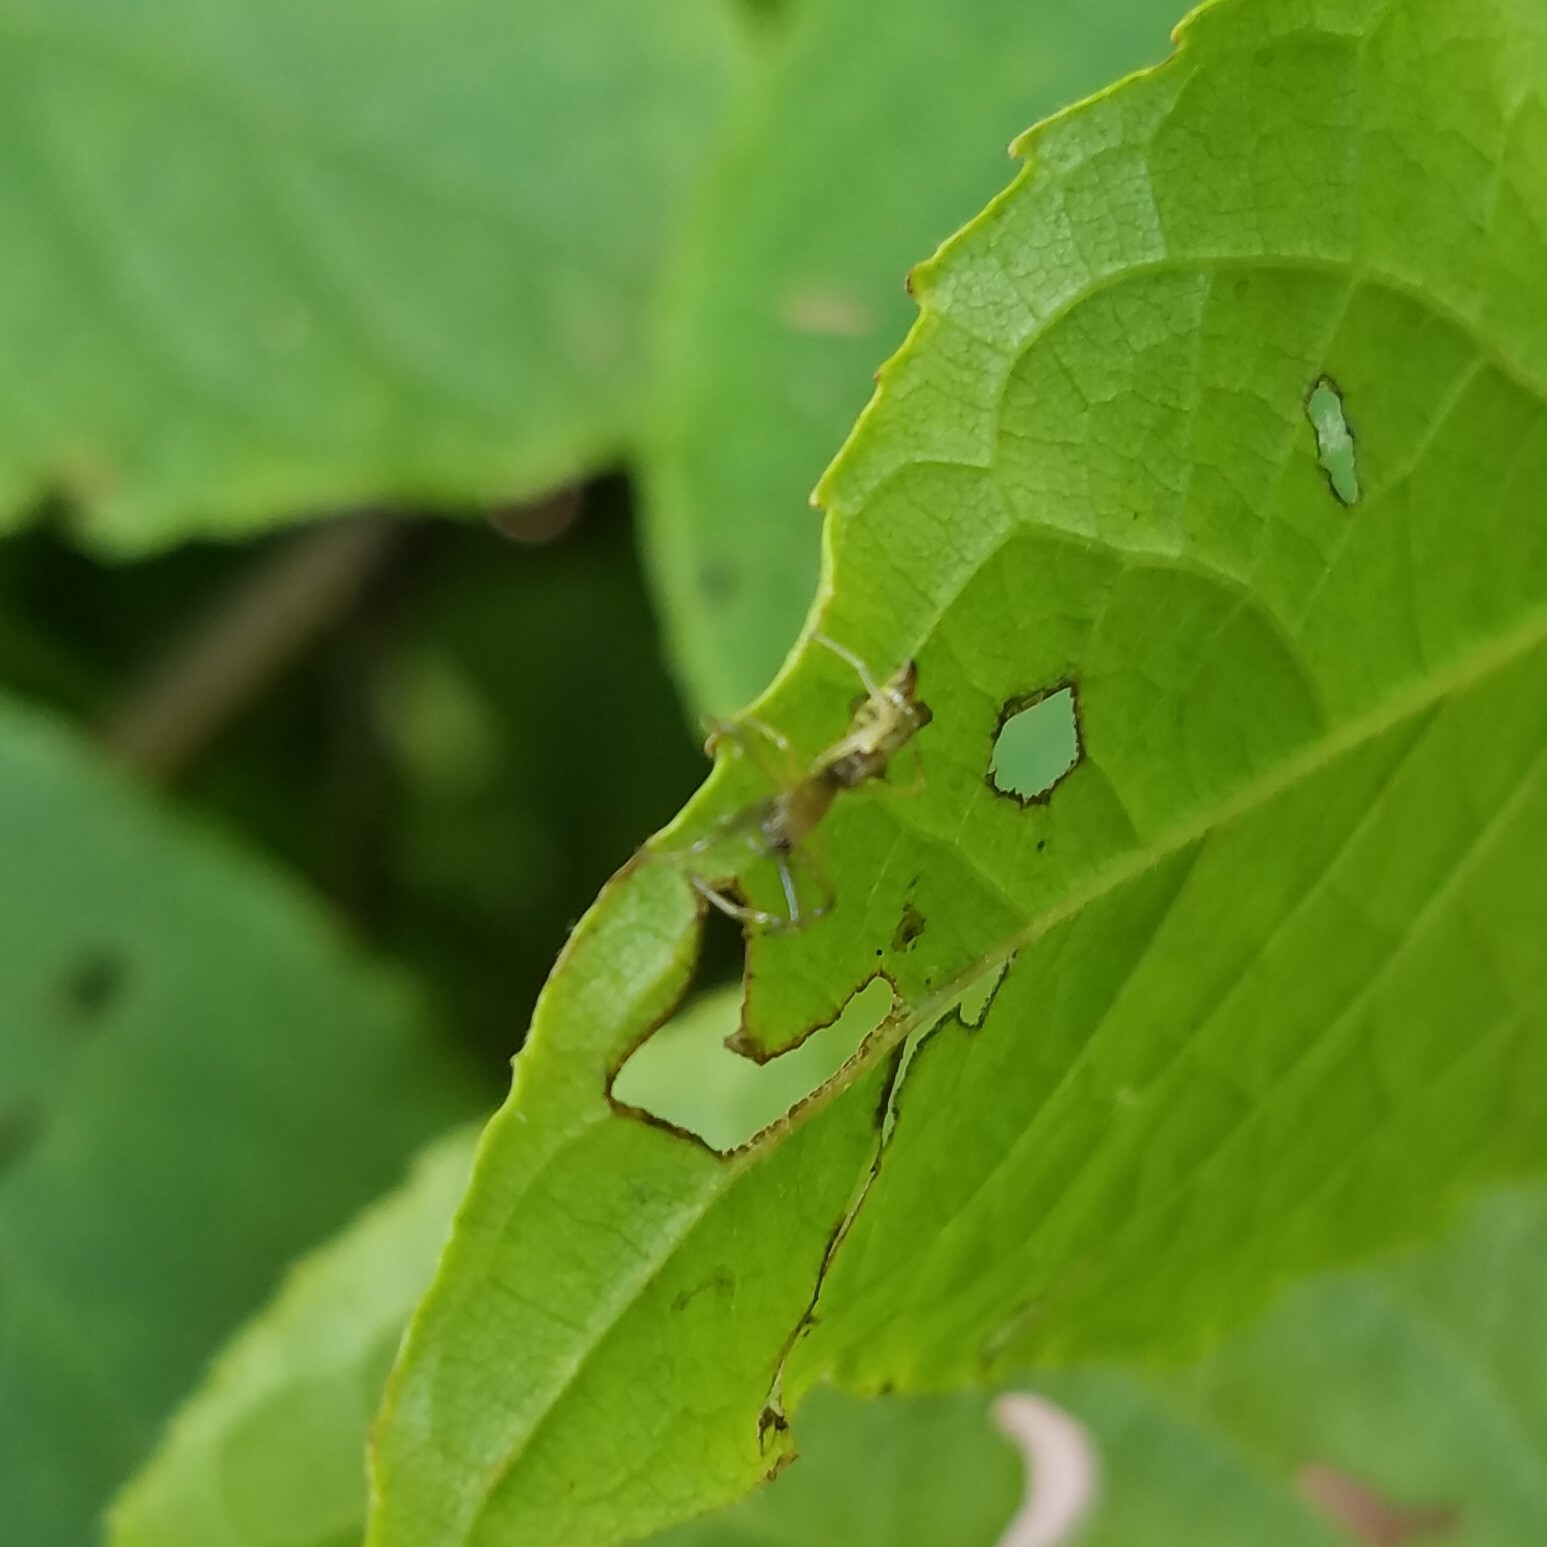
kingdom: Animalia
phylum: Arthropoda
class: Arachnida
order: Araneae
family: Araneidae
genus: Micrathena
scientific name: Micrathena sagittata
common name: Orb weavers
